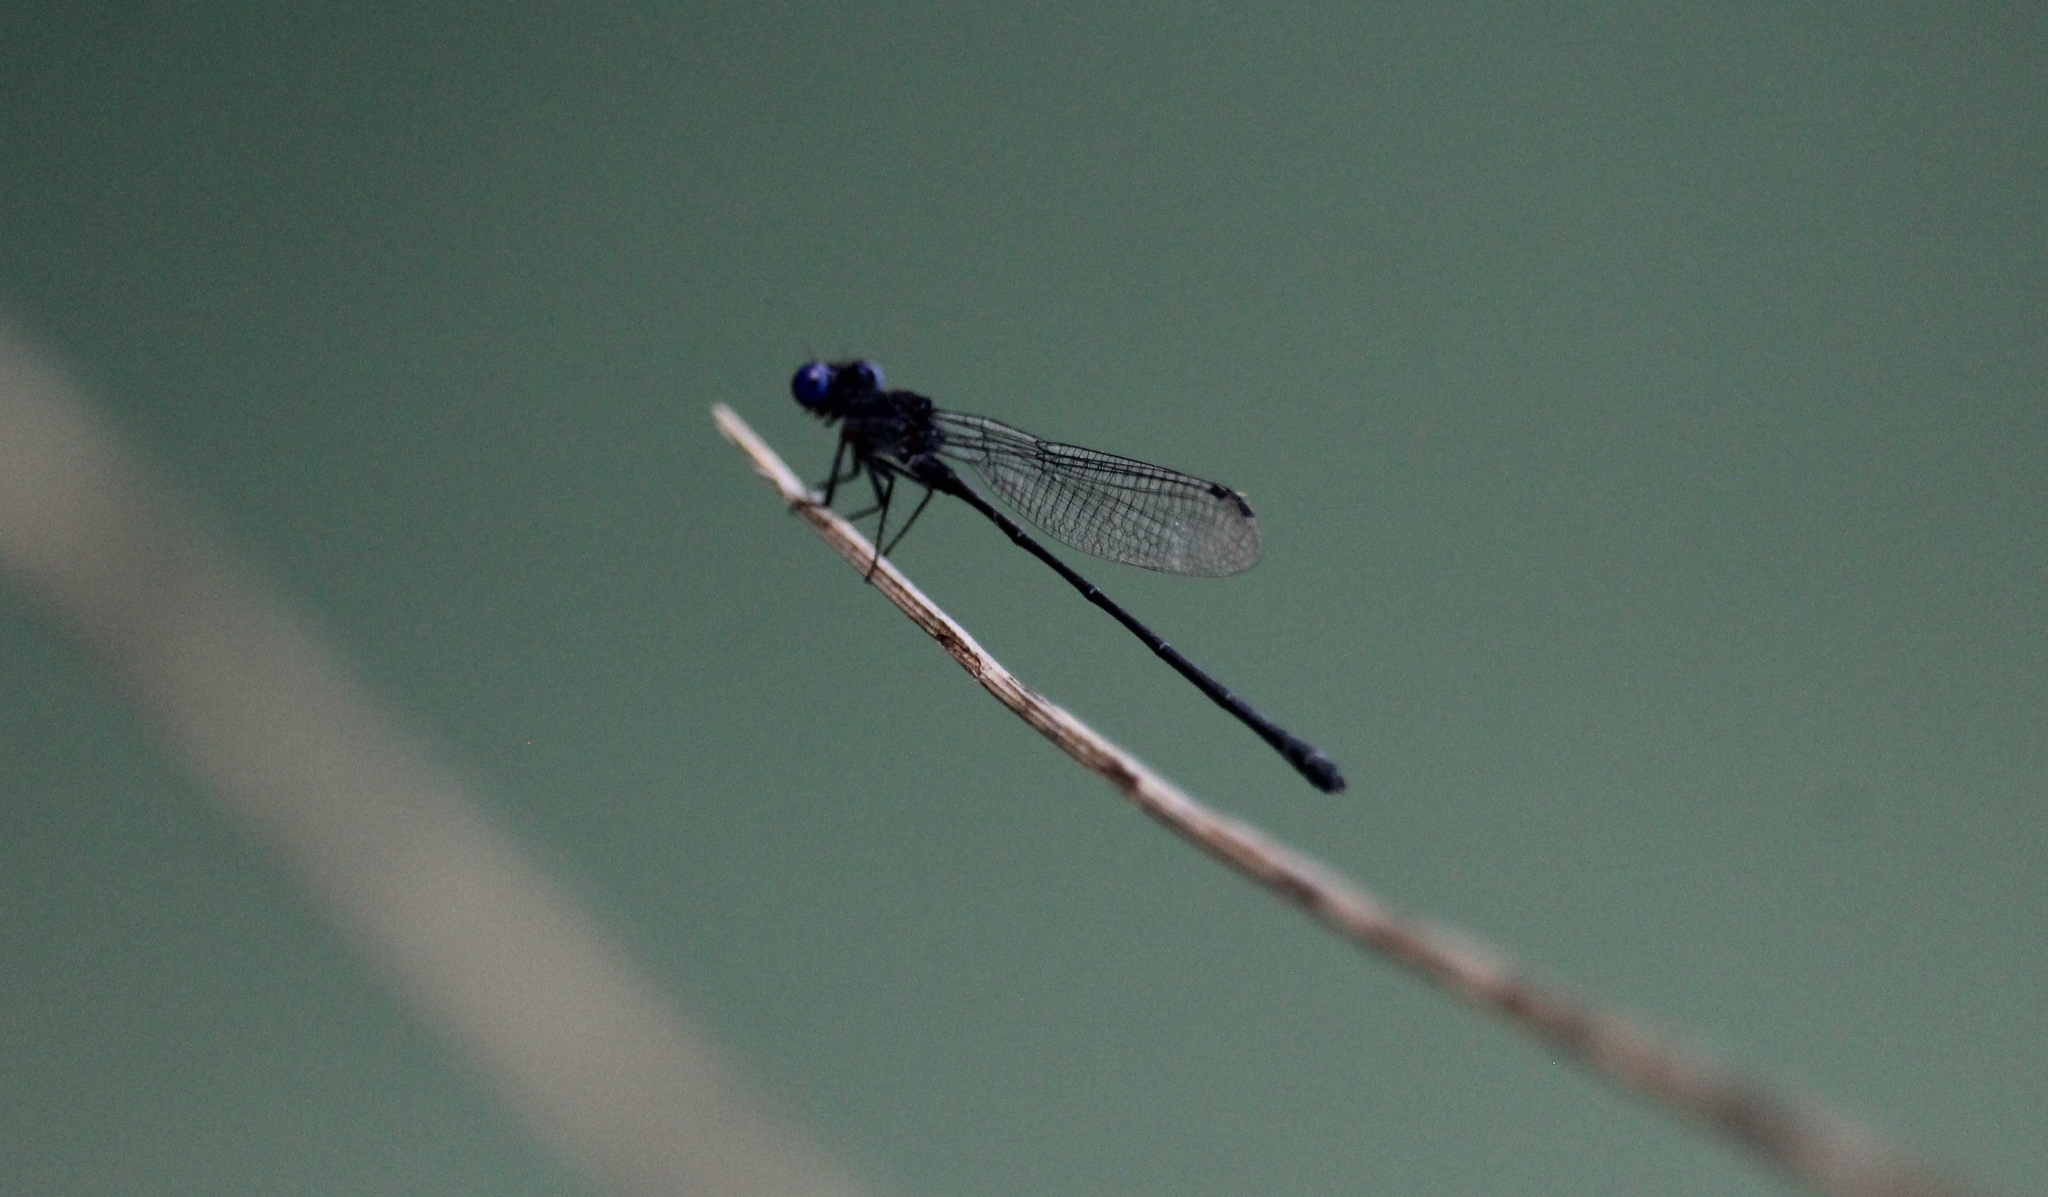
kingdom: Animalia
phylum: Arthropoda
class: Insecta
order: Odonata
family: Coenagrionidae
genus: Argia
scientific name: Argia translata
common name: Dusky dancer
